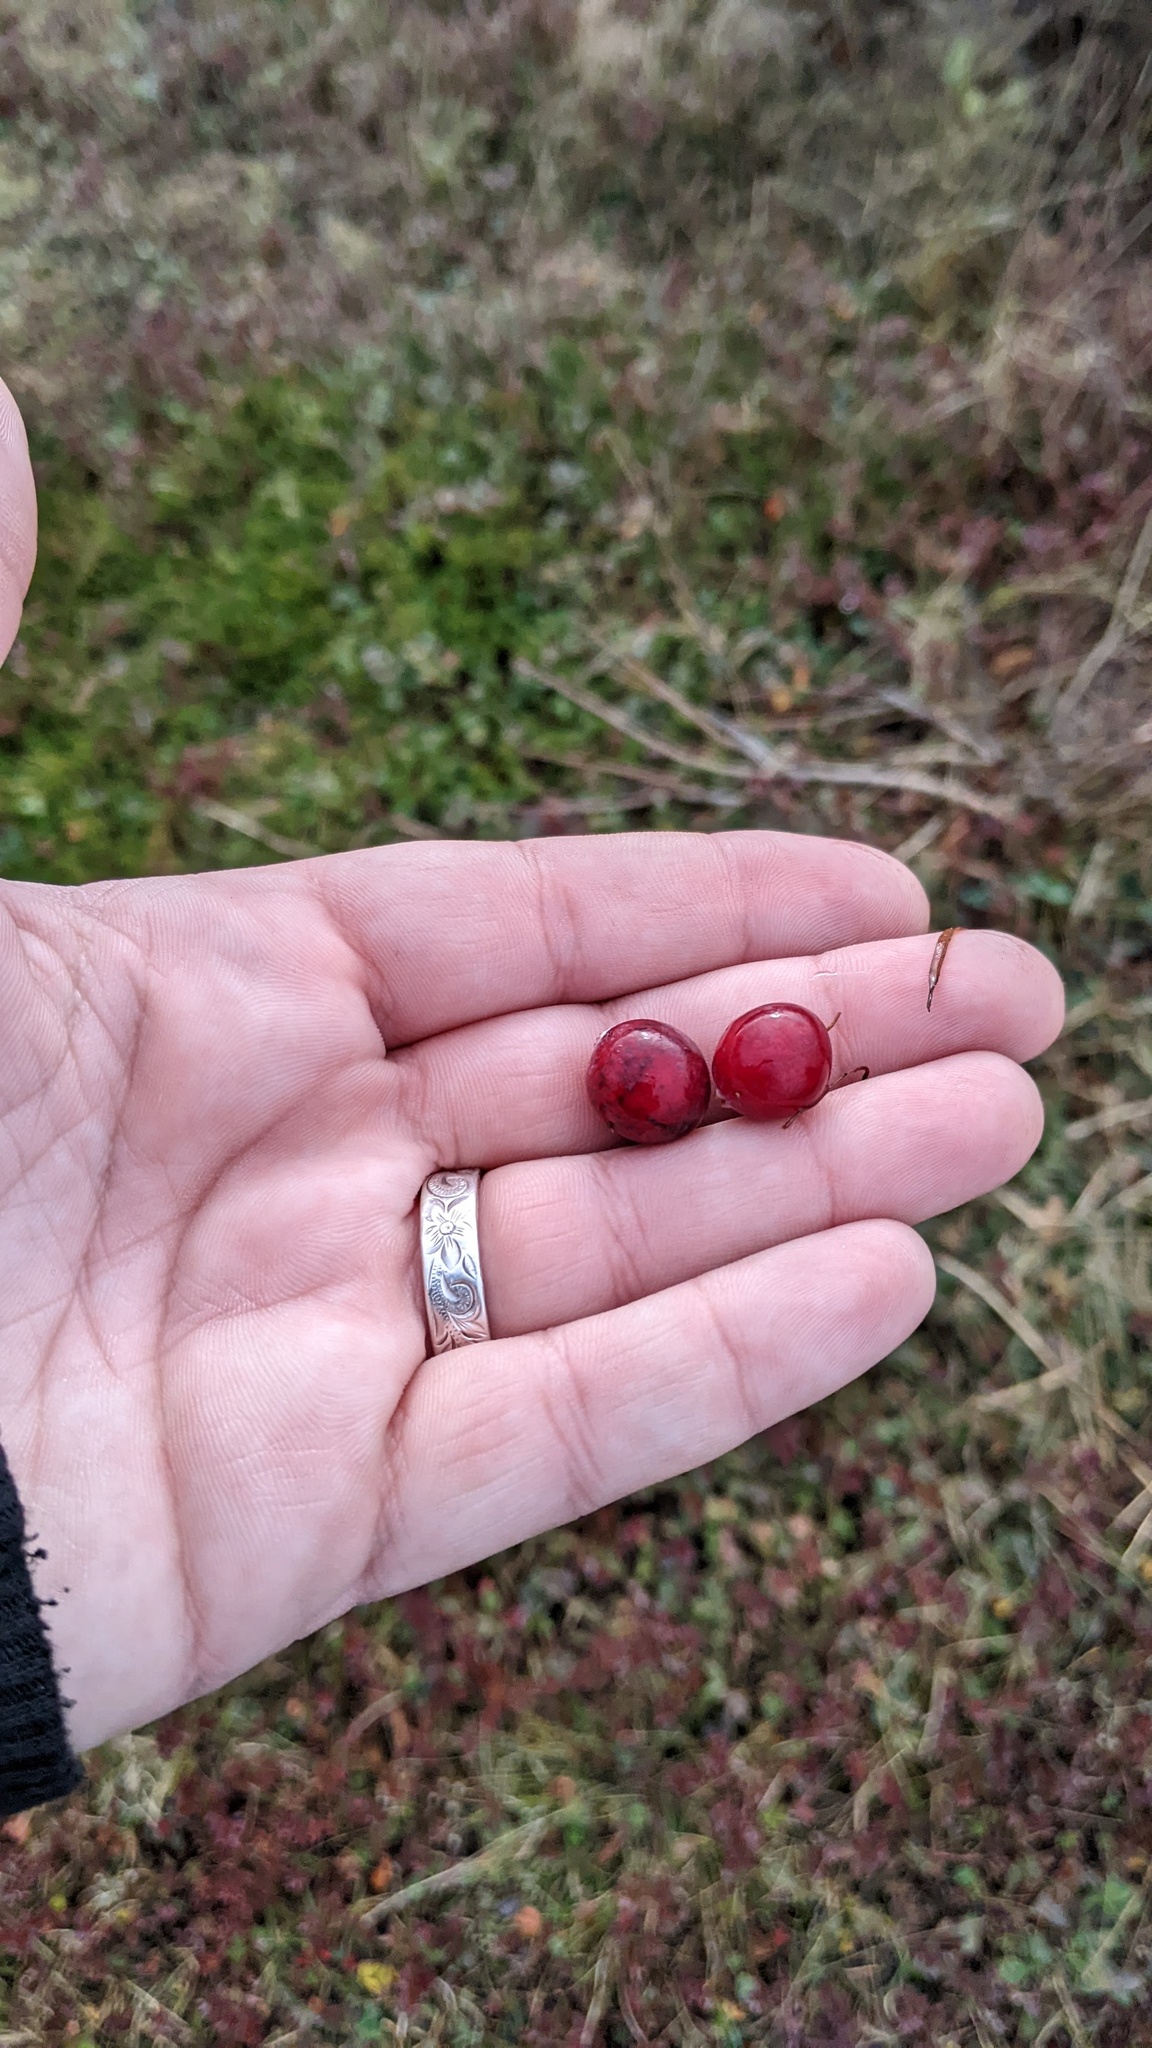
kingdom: Plantae
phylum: Tracheophyta
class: Magnoliopsida
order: Ericales
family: Ericaceae
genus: Vaccinium
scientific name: Vaccinium macrocarpon
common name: American cranberry
